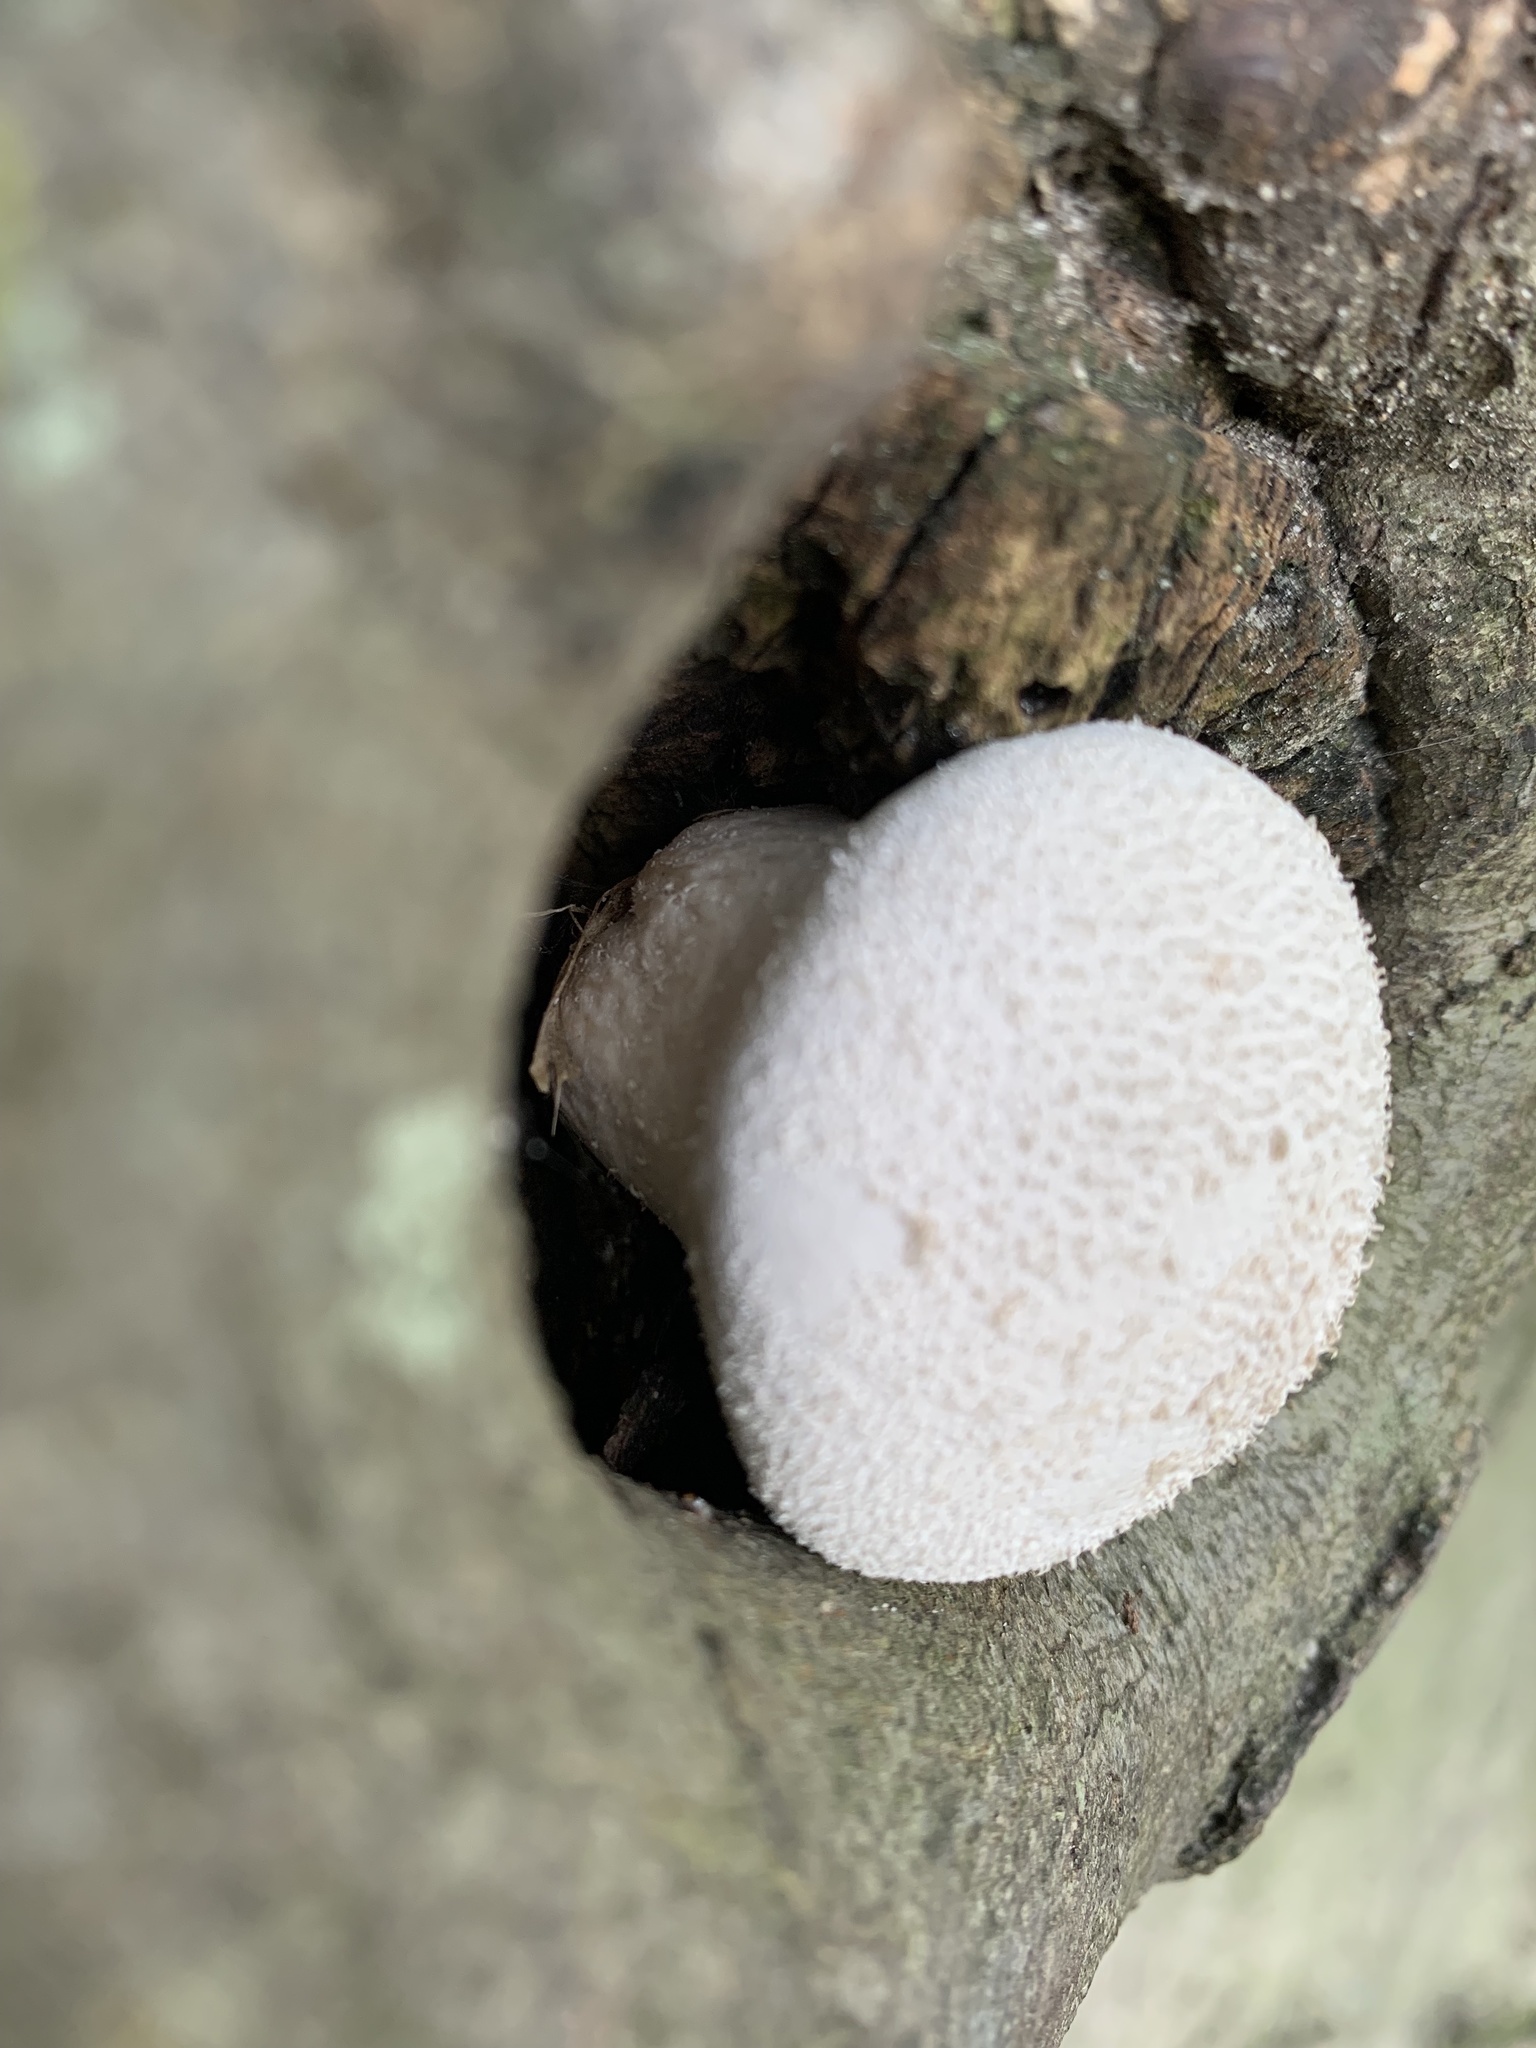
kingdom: Fungi
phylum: Basidiomycota
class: Agaricomycetes
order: Agaricales
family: Lycoperdaceae
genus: Lycoperdon
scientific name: Lycoperdon perlatum
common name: Common puffball
